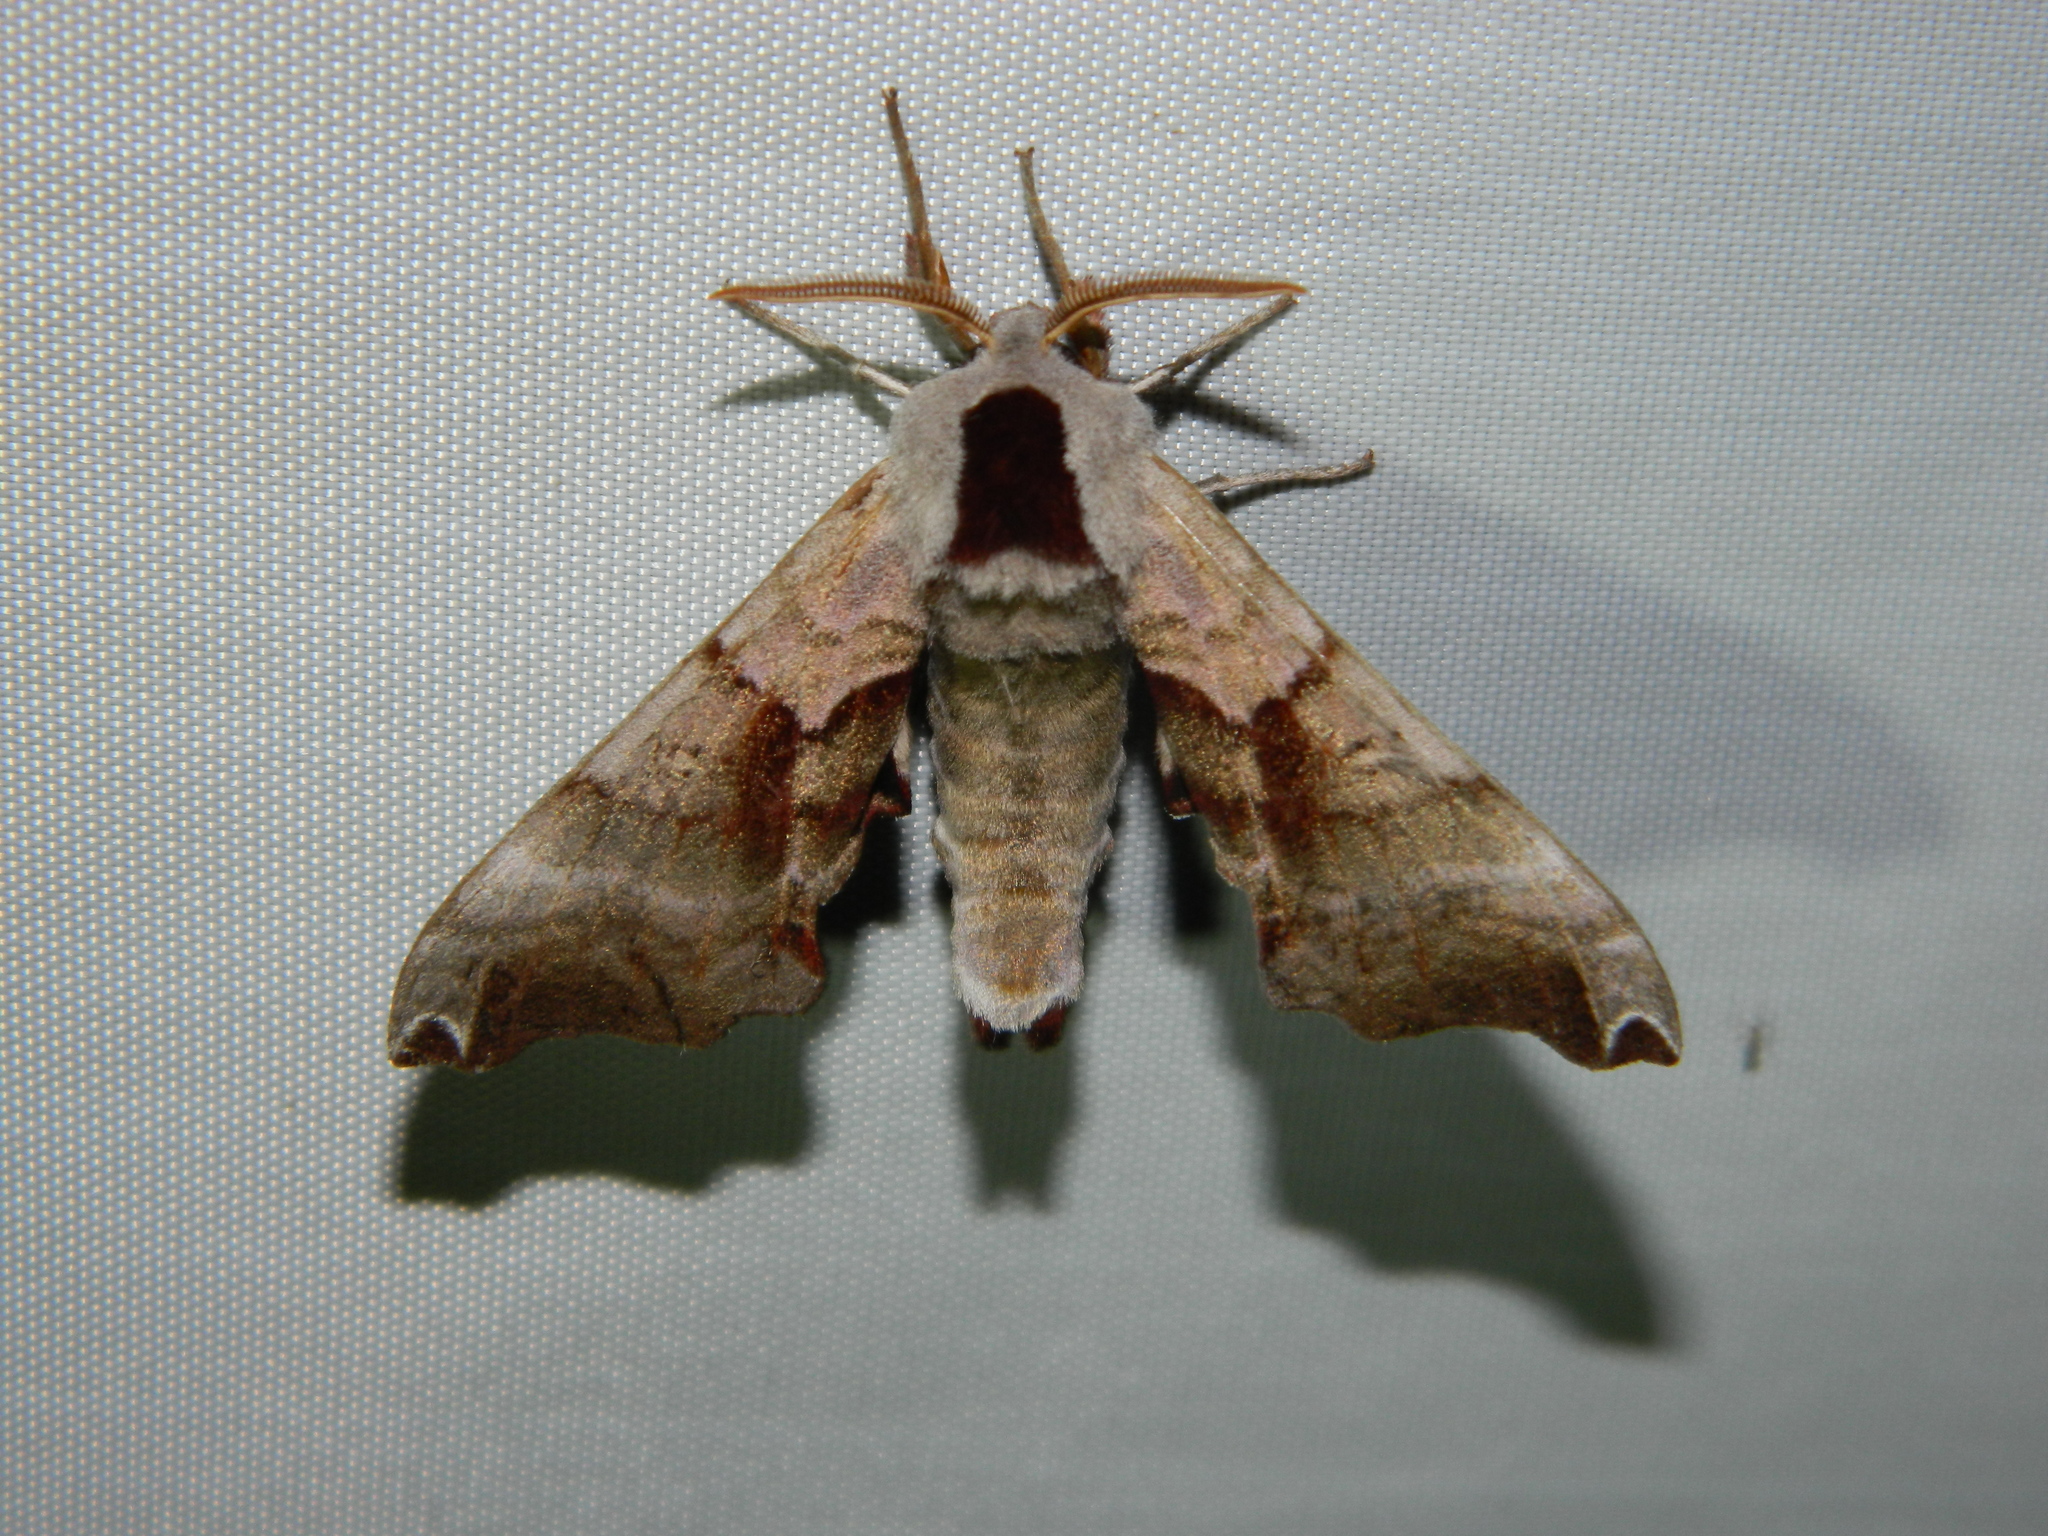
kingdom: Animalia
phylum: Arthropoda
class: Insecta
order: Lepidoptera
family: Sphingidae
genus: Smerinthus
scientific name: Smerinthus jamaicensis
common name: Twin spotted sphinx
